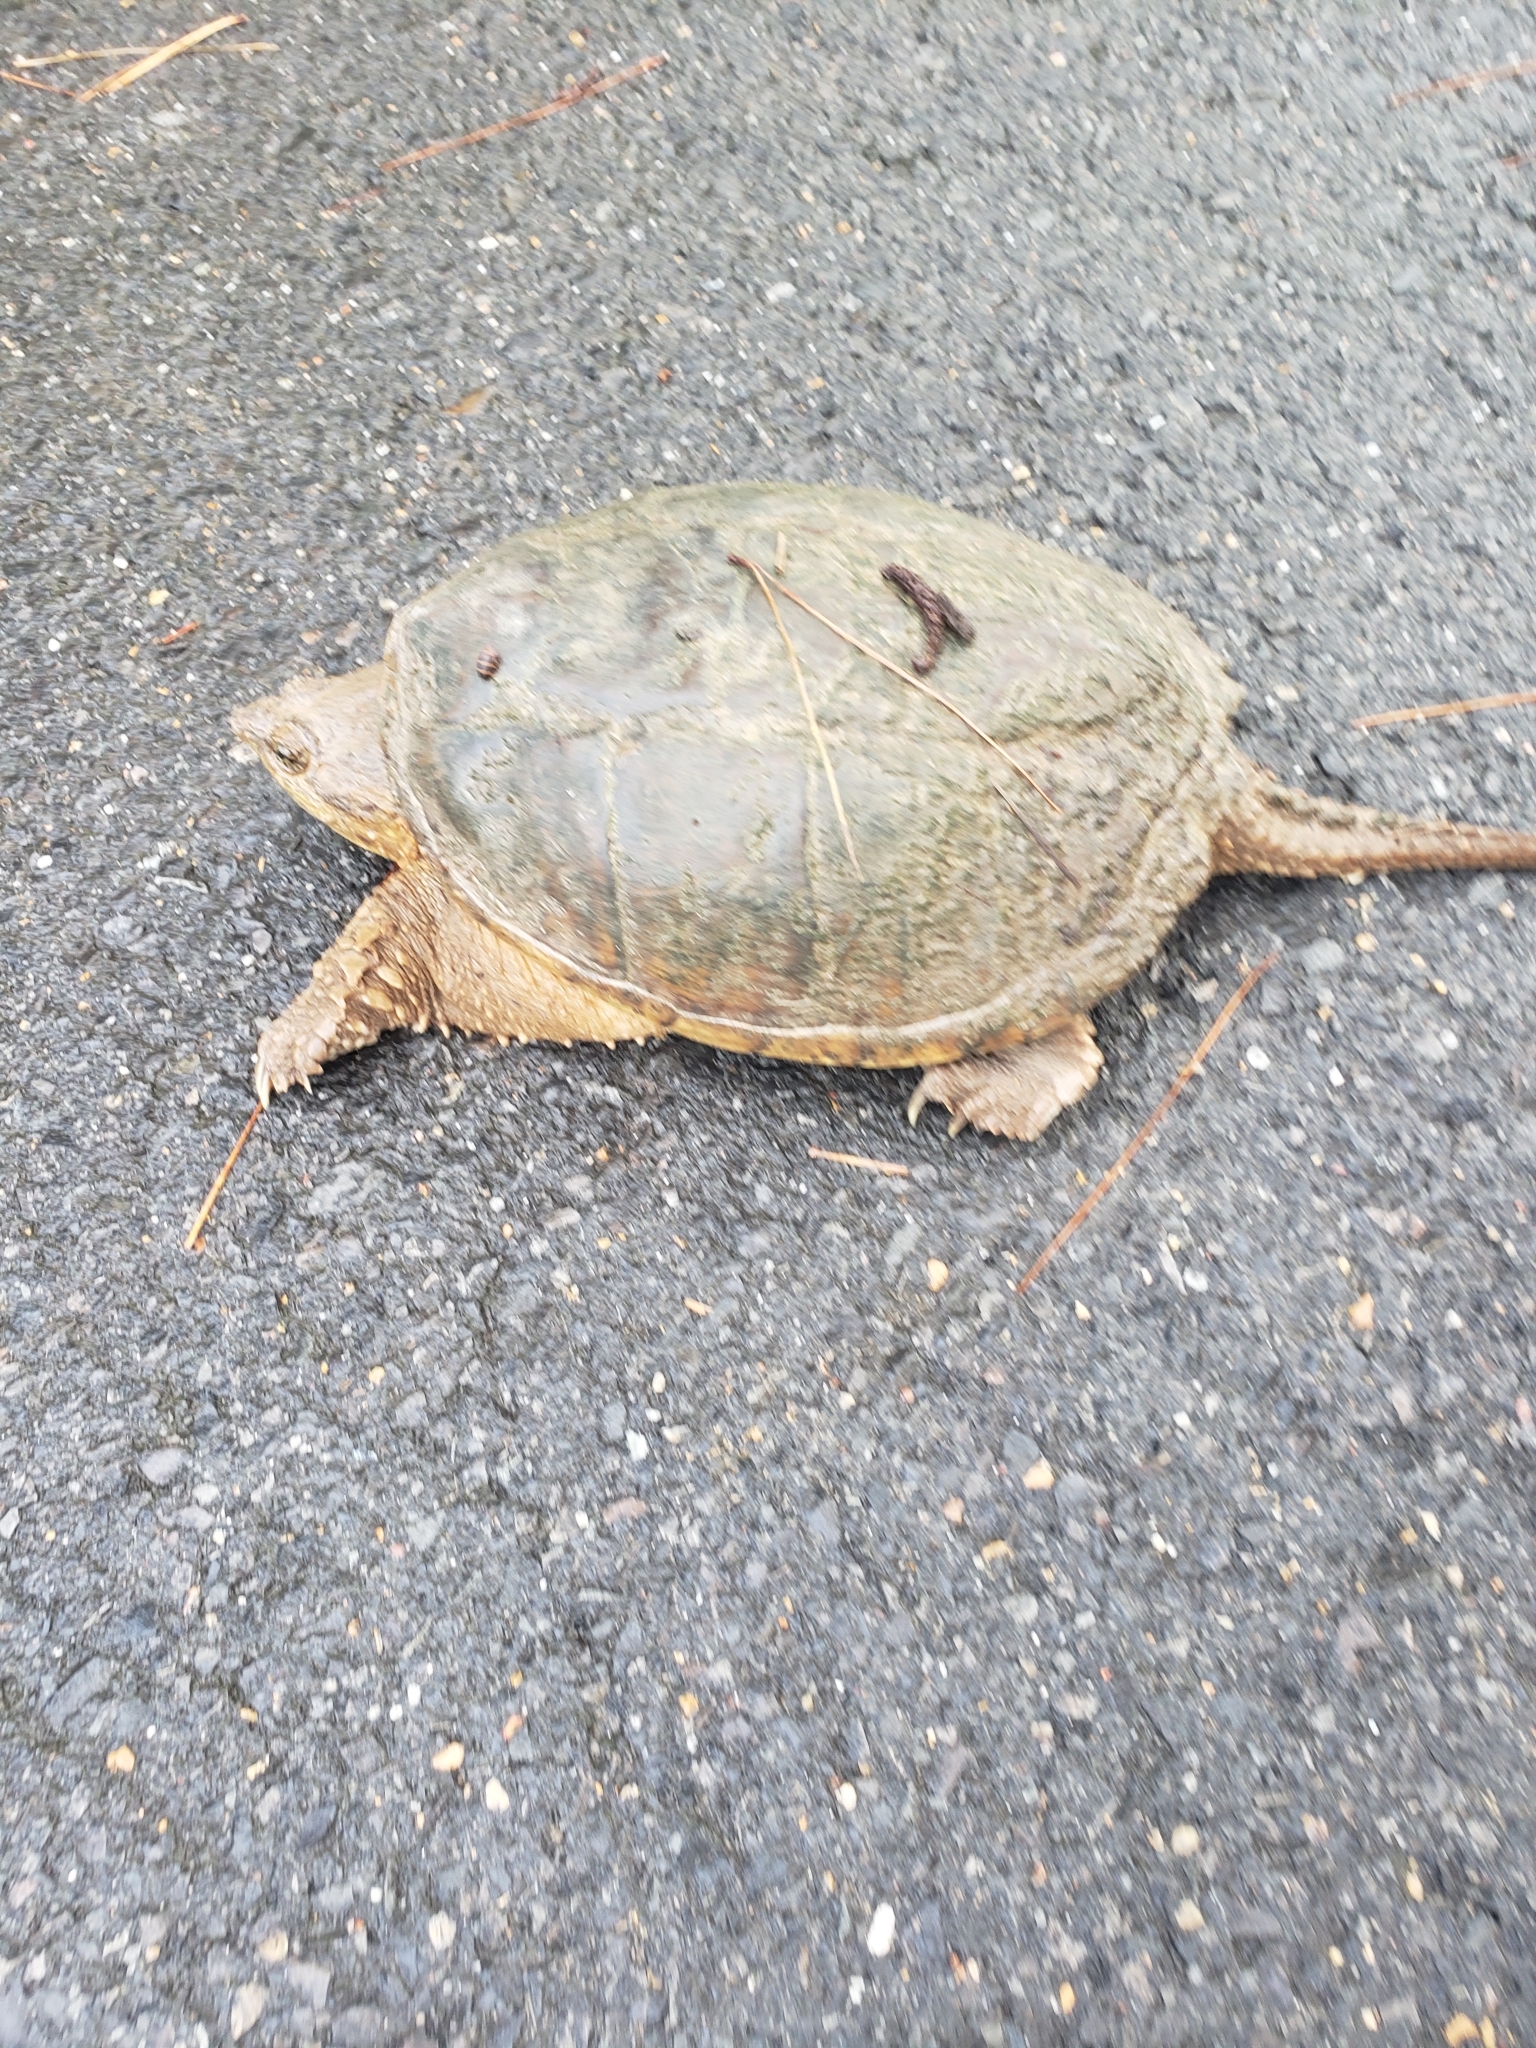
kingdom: Animalia
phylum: Chordata
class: Testudines
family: Chelydridae
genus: Chelydra
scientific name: Chelydra serpentina
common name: Common snapping turtle
